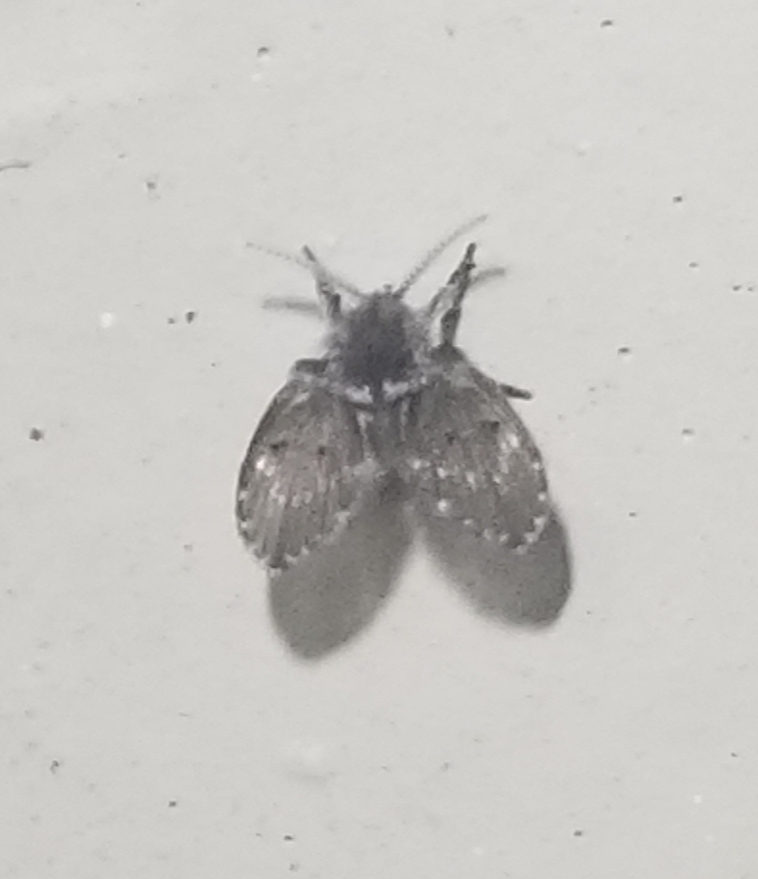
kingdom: Animalia
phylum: Arthropoda
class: Insecta
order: Diptera
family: Psychodidae
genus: Clogmia
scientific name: Clogmia albipunctatus
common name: White-spotted moth fly
